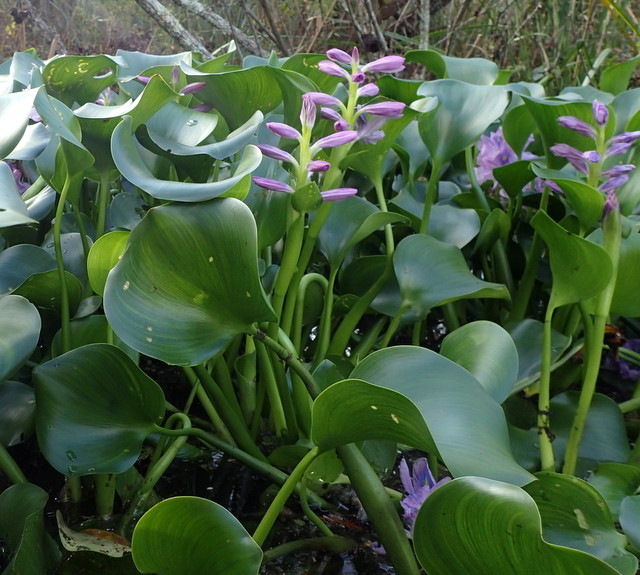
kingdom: Plantae
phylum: Tracheophyta
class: Liliopsida
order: Commelinales
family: Pontederiaceae
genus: Pontederia
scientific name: Pontederia crassipes
